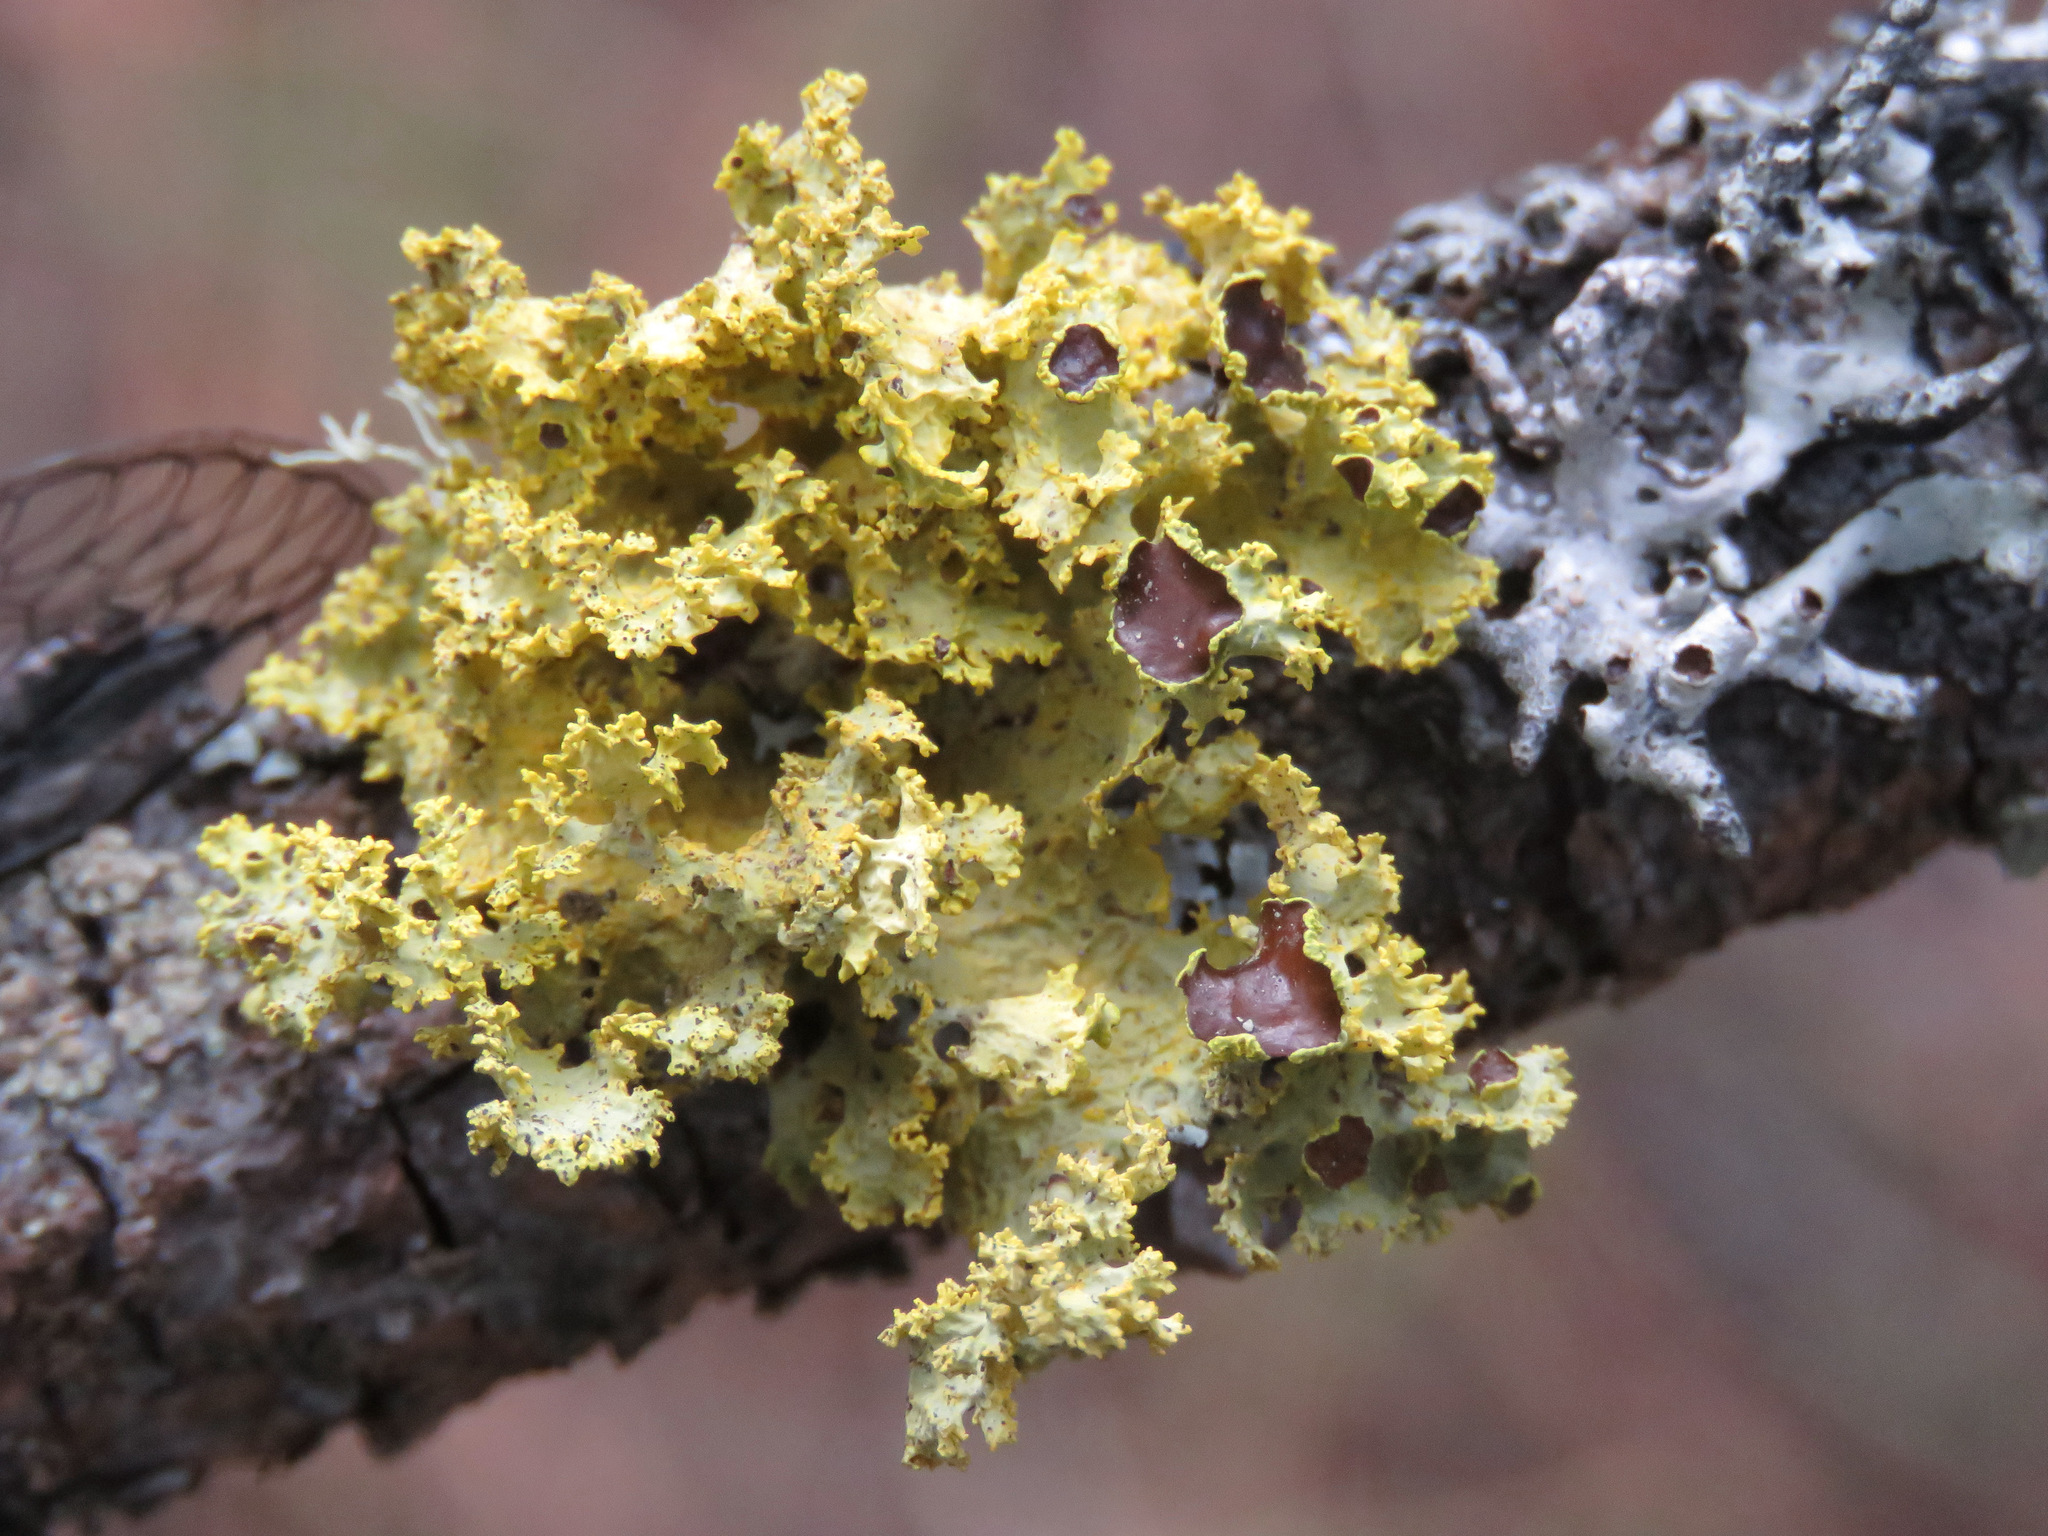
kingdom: Fungi
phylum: Ascomycota
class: Lecanoromycetes
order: Lecanorales
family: Parmeliaceae
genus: Vulpicida
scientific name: Vulpicida canadensis
